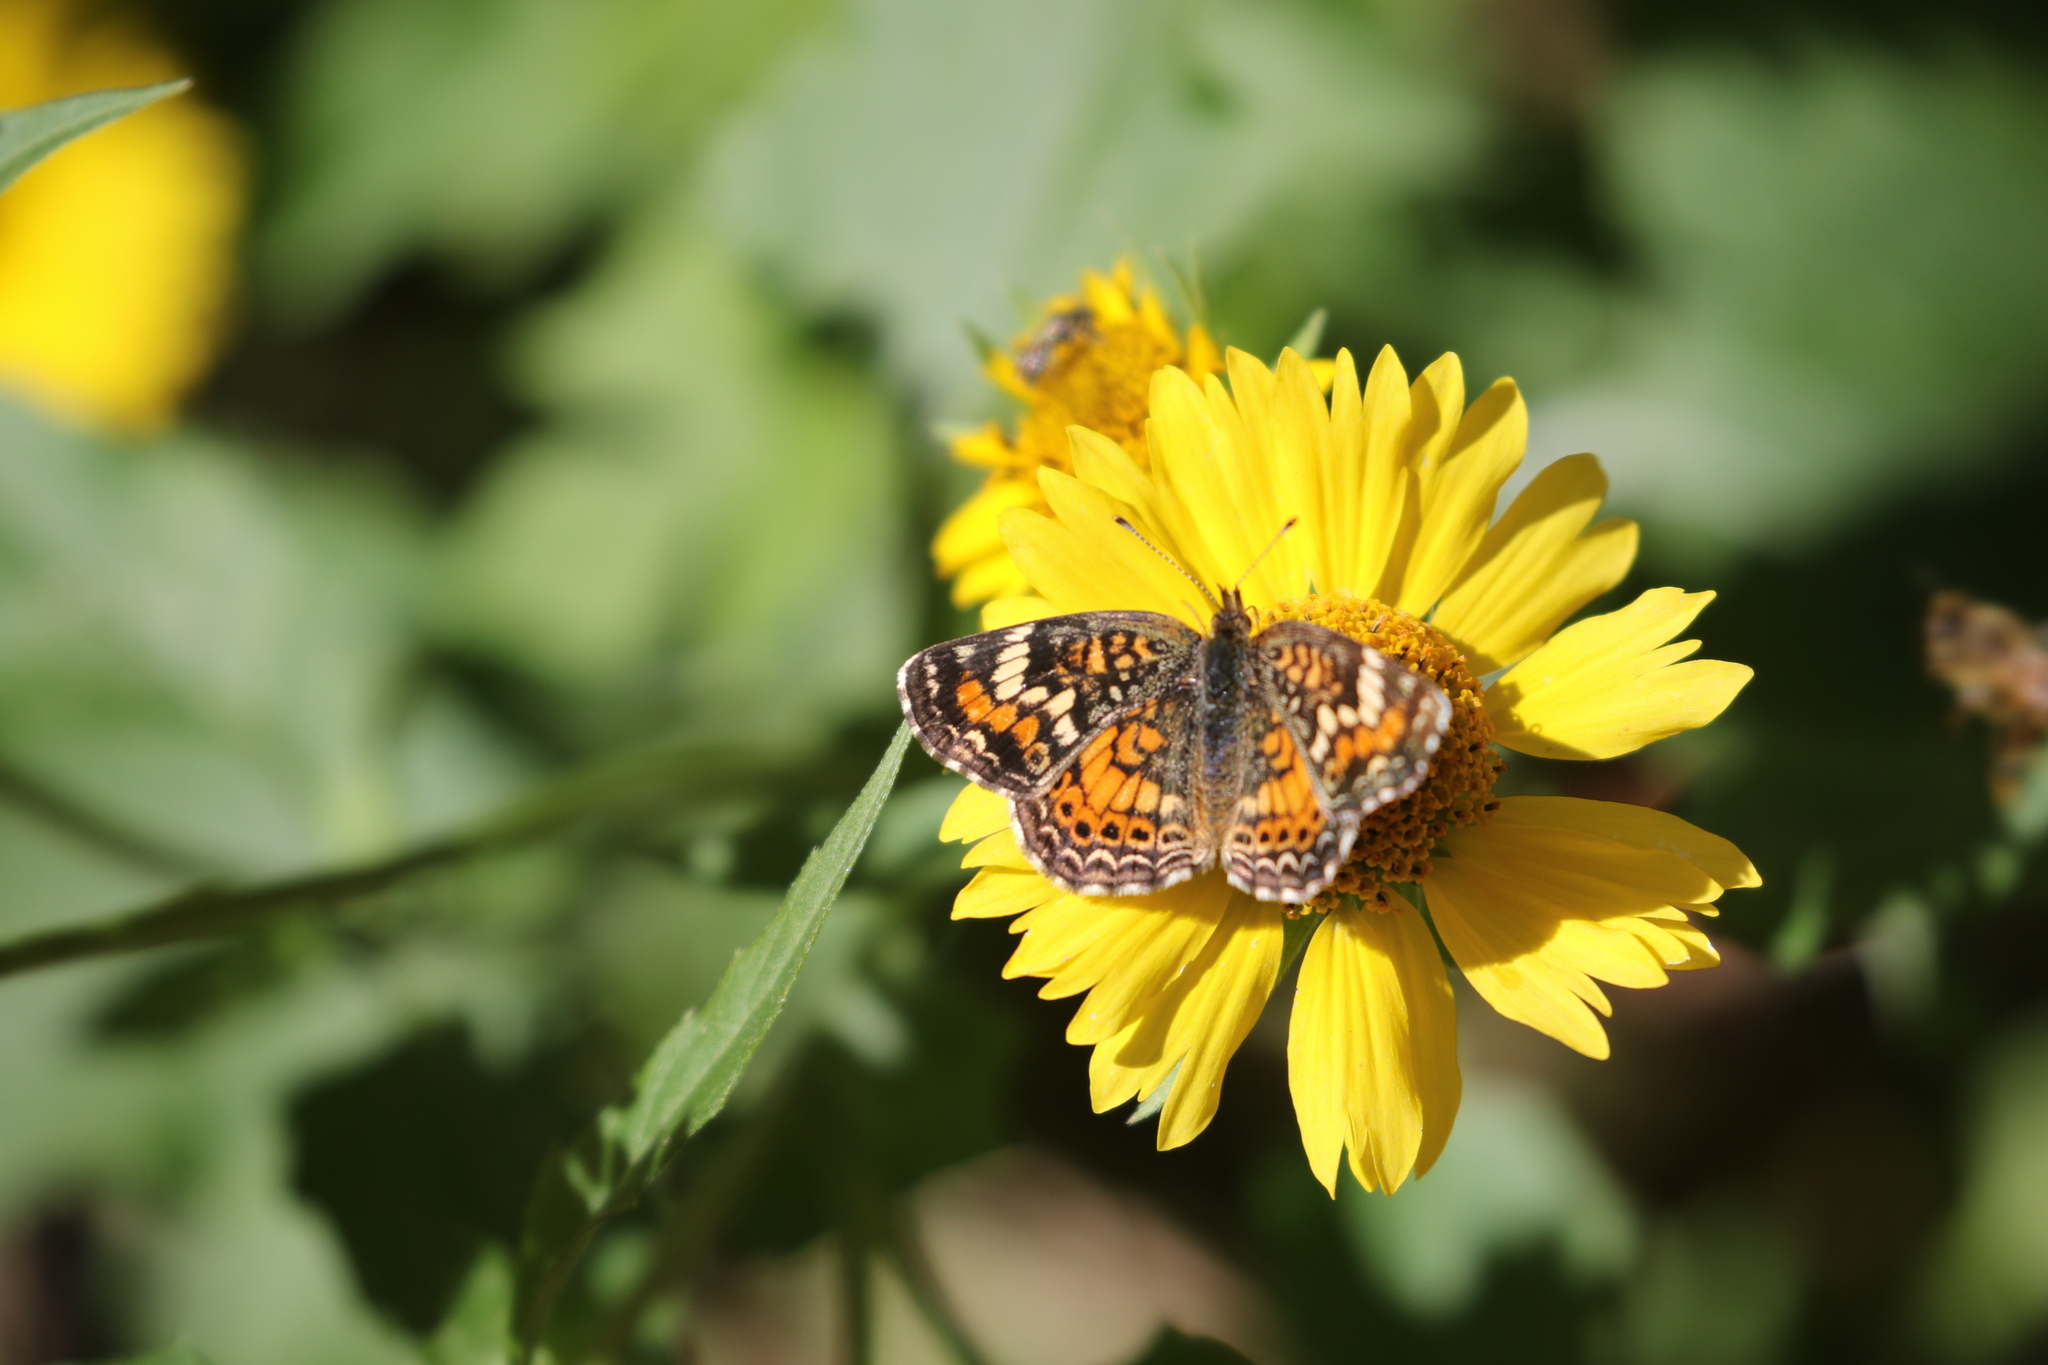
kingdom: Animalia
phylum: Arthropoda
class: Insecta
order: Lepidoptera
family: Nymphalidae
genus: Phyciodes
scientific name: Phyciodes phaon
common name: Phaon crescent
